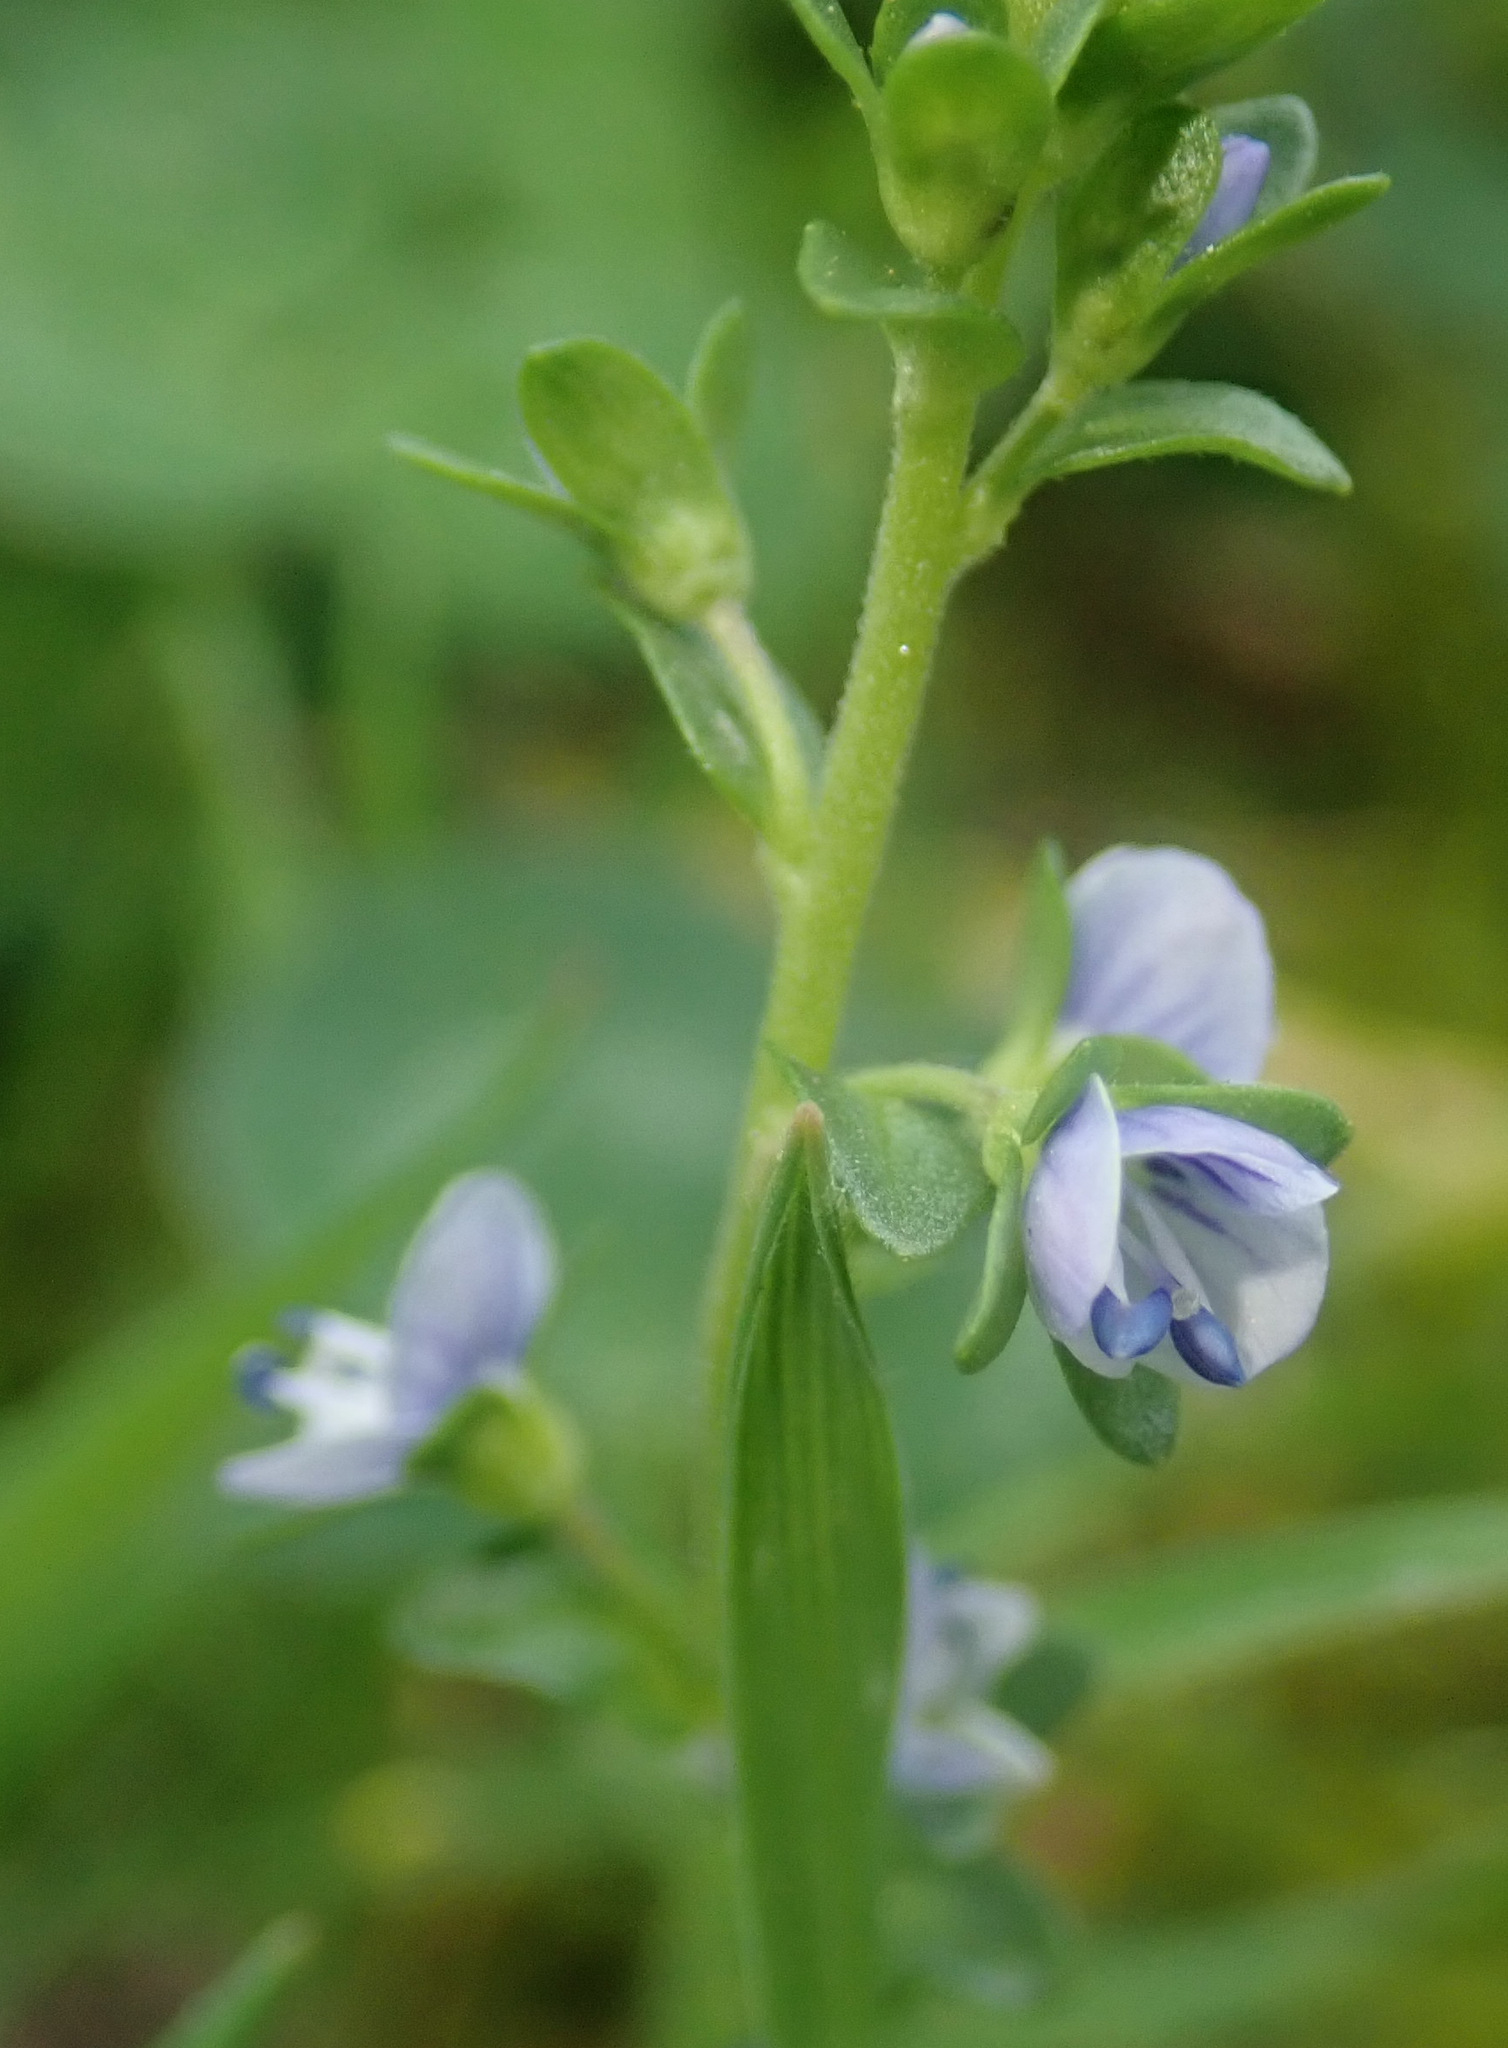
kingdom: Plantae
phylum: Tracheophyta
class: Magnoliopsida
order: Lamiales
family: Plantaginaceae
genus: Veronica
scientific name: Veronica serpyllifolia
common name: Thyme-leaved speedwell
